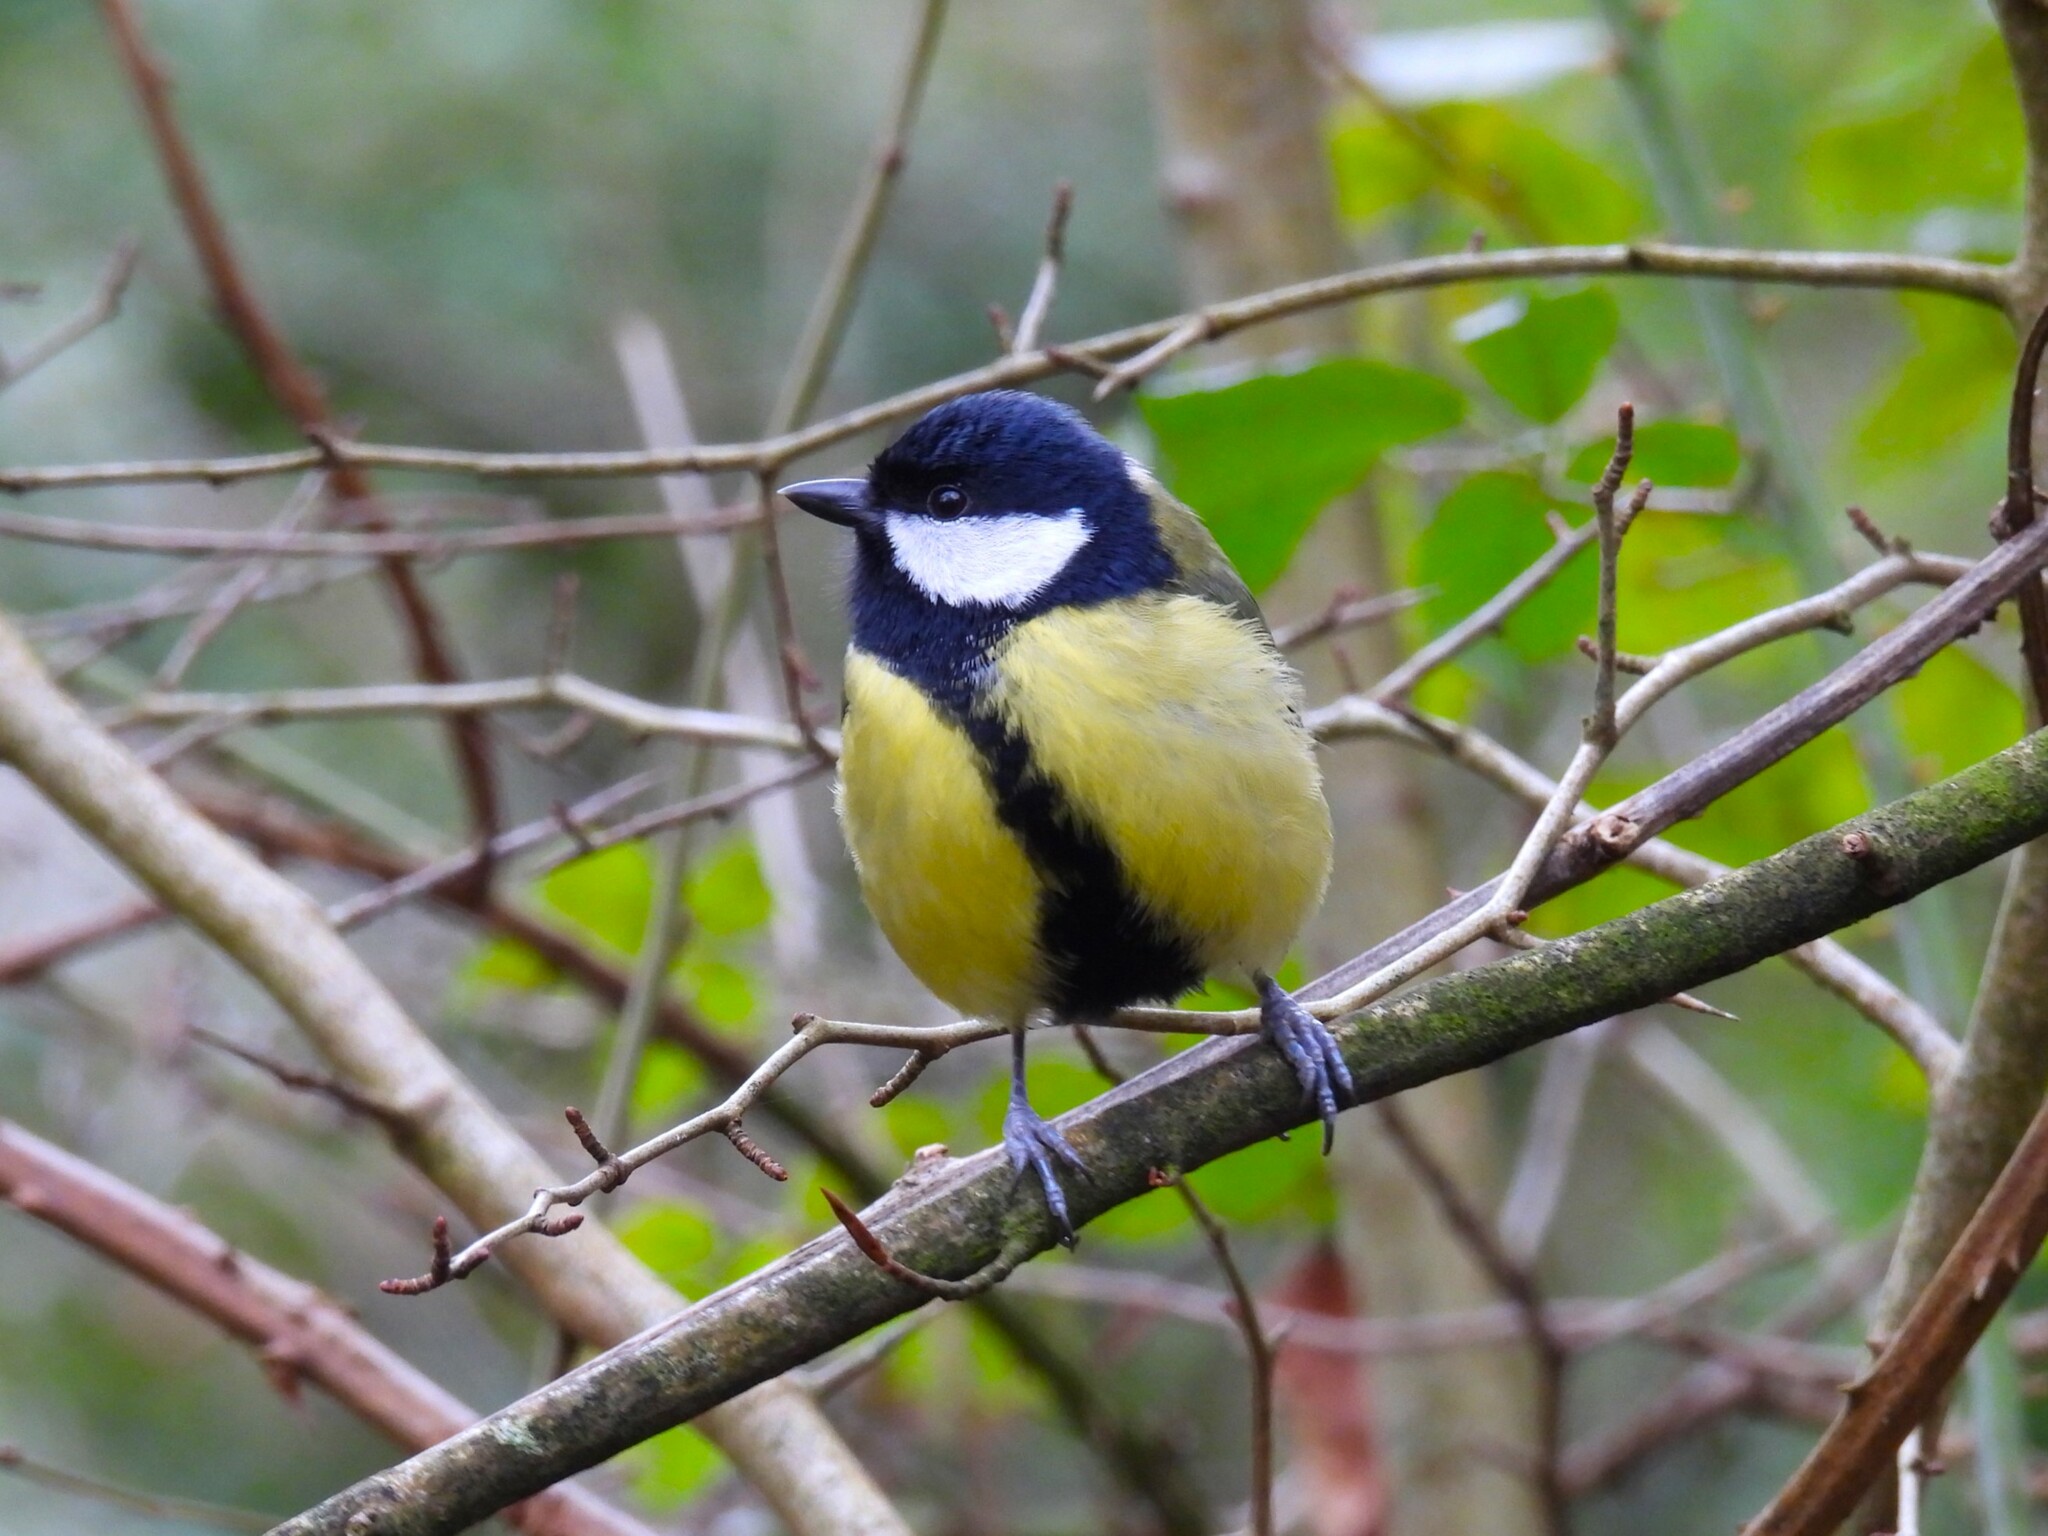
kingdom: Animalia
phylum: Chordata
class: Aves
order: Passeriformes
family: Paridae
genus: Parus
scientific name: Parus major
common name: Great tit
